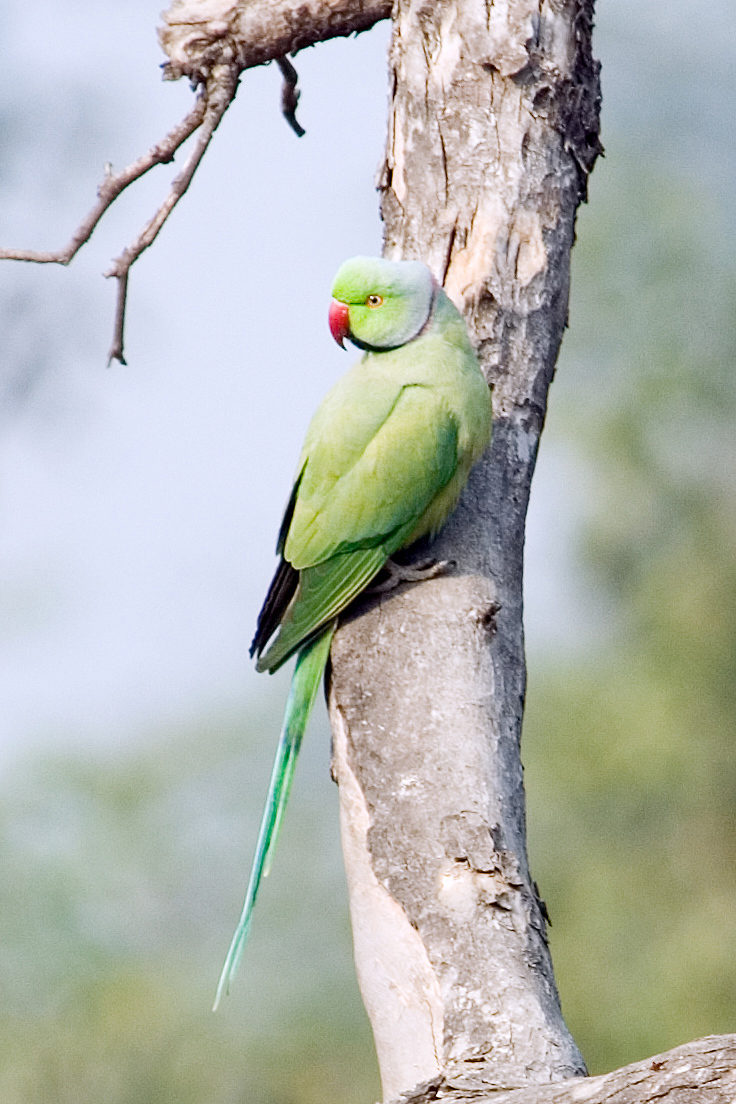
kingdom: Animalia
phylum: Chordata
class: Aves
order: Psittaciformes
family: Psittacidae
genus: Psittacula
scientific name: Psittacula krameri
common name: Rose-ringed parakeet
